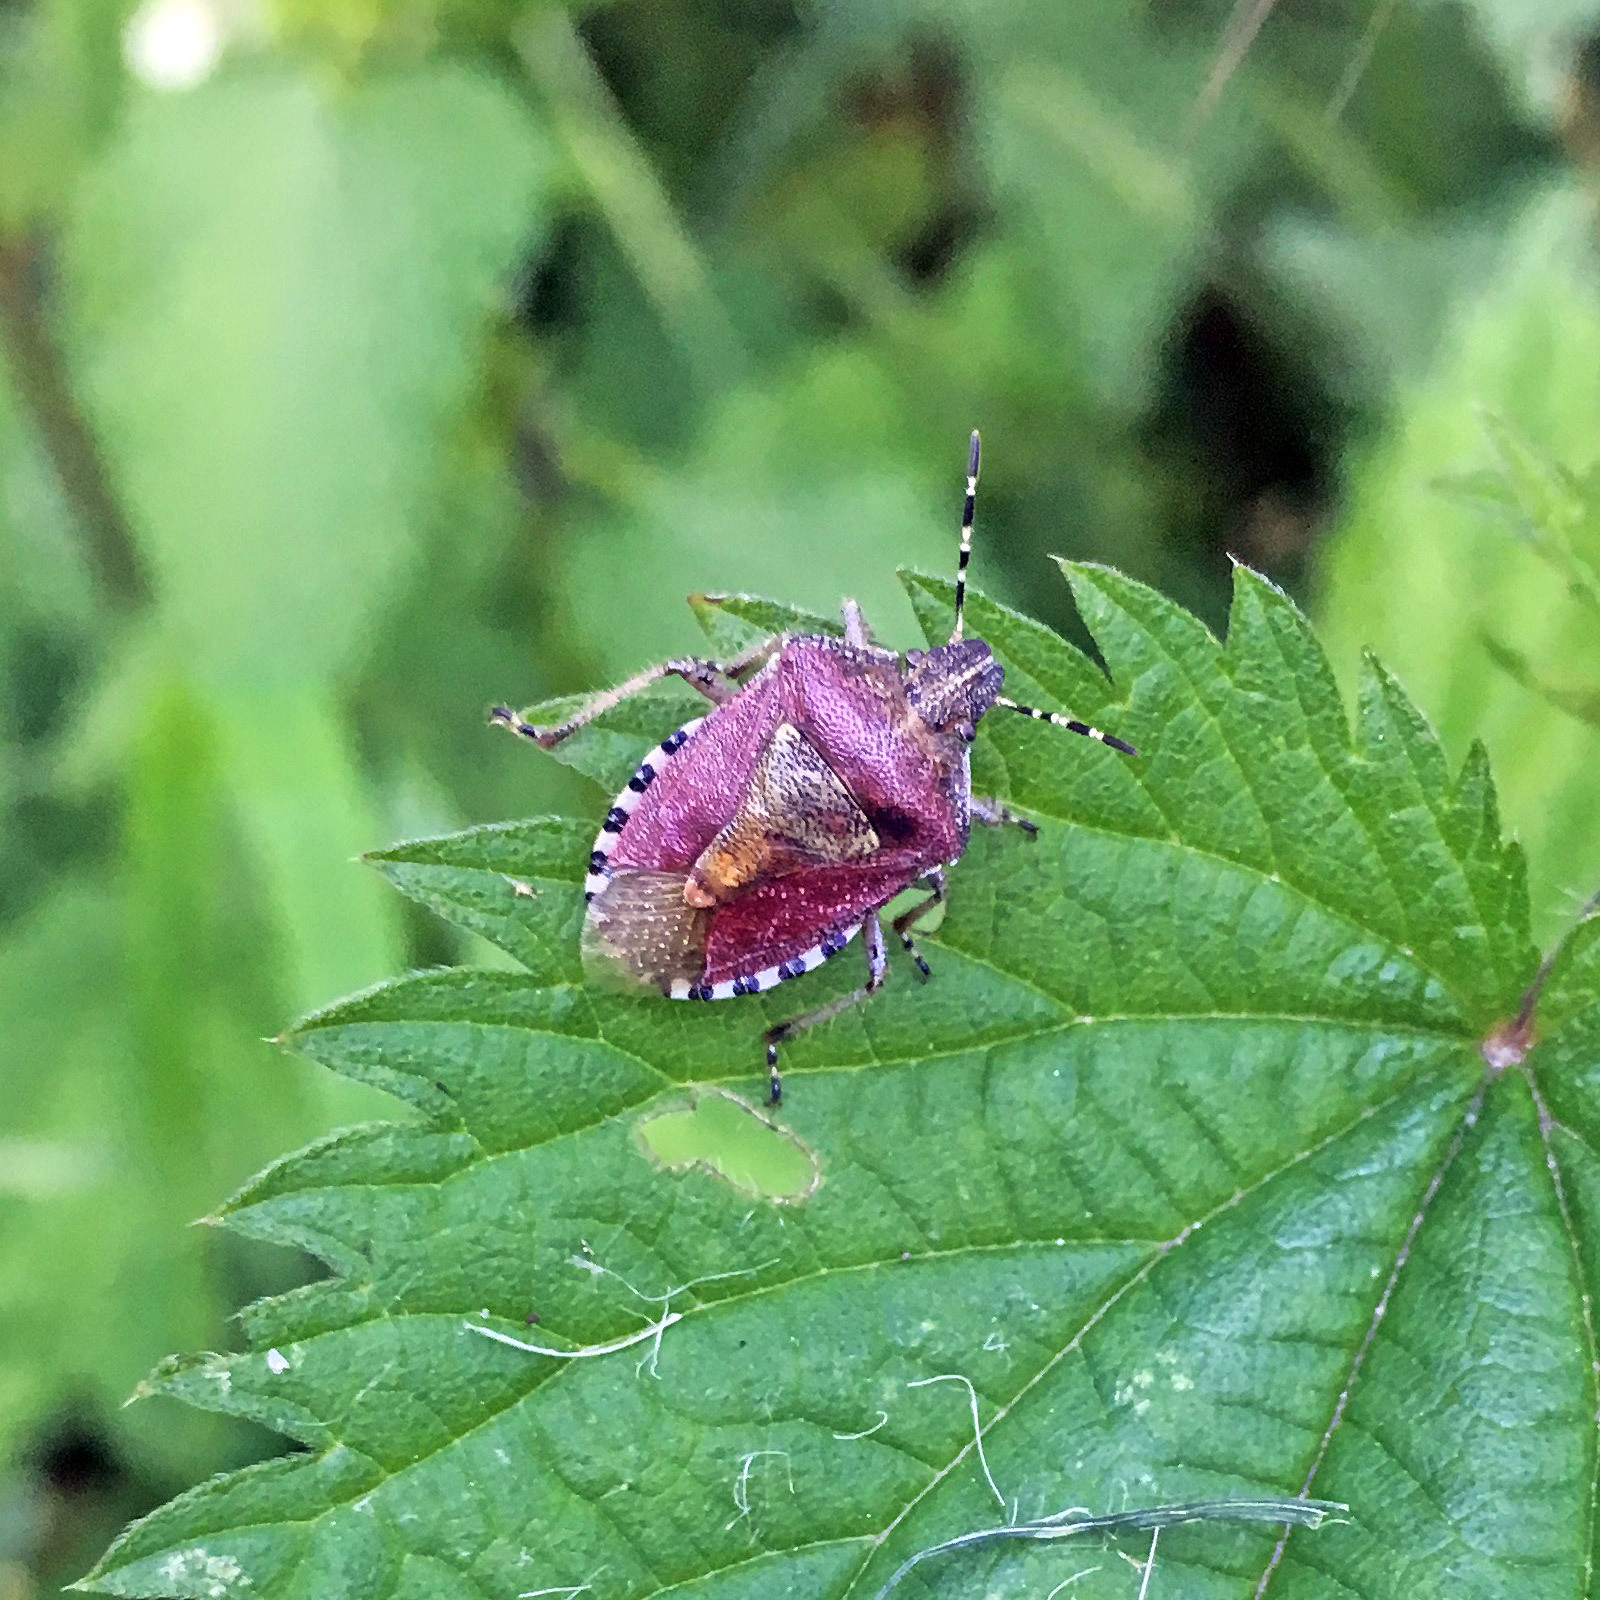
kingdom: Animalia
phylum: Arthropoda
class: Insecta
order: Hemiptera
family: Pentatomidae
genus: Dolycoris
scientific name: Dolycoris baccarum
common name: Sloe bug
